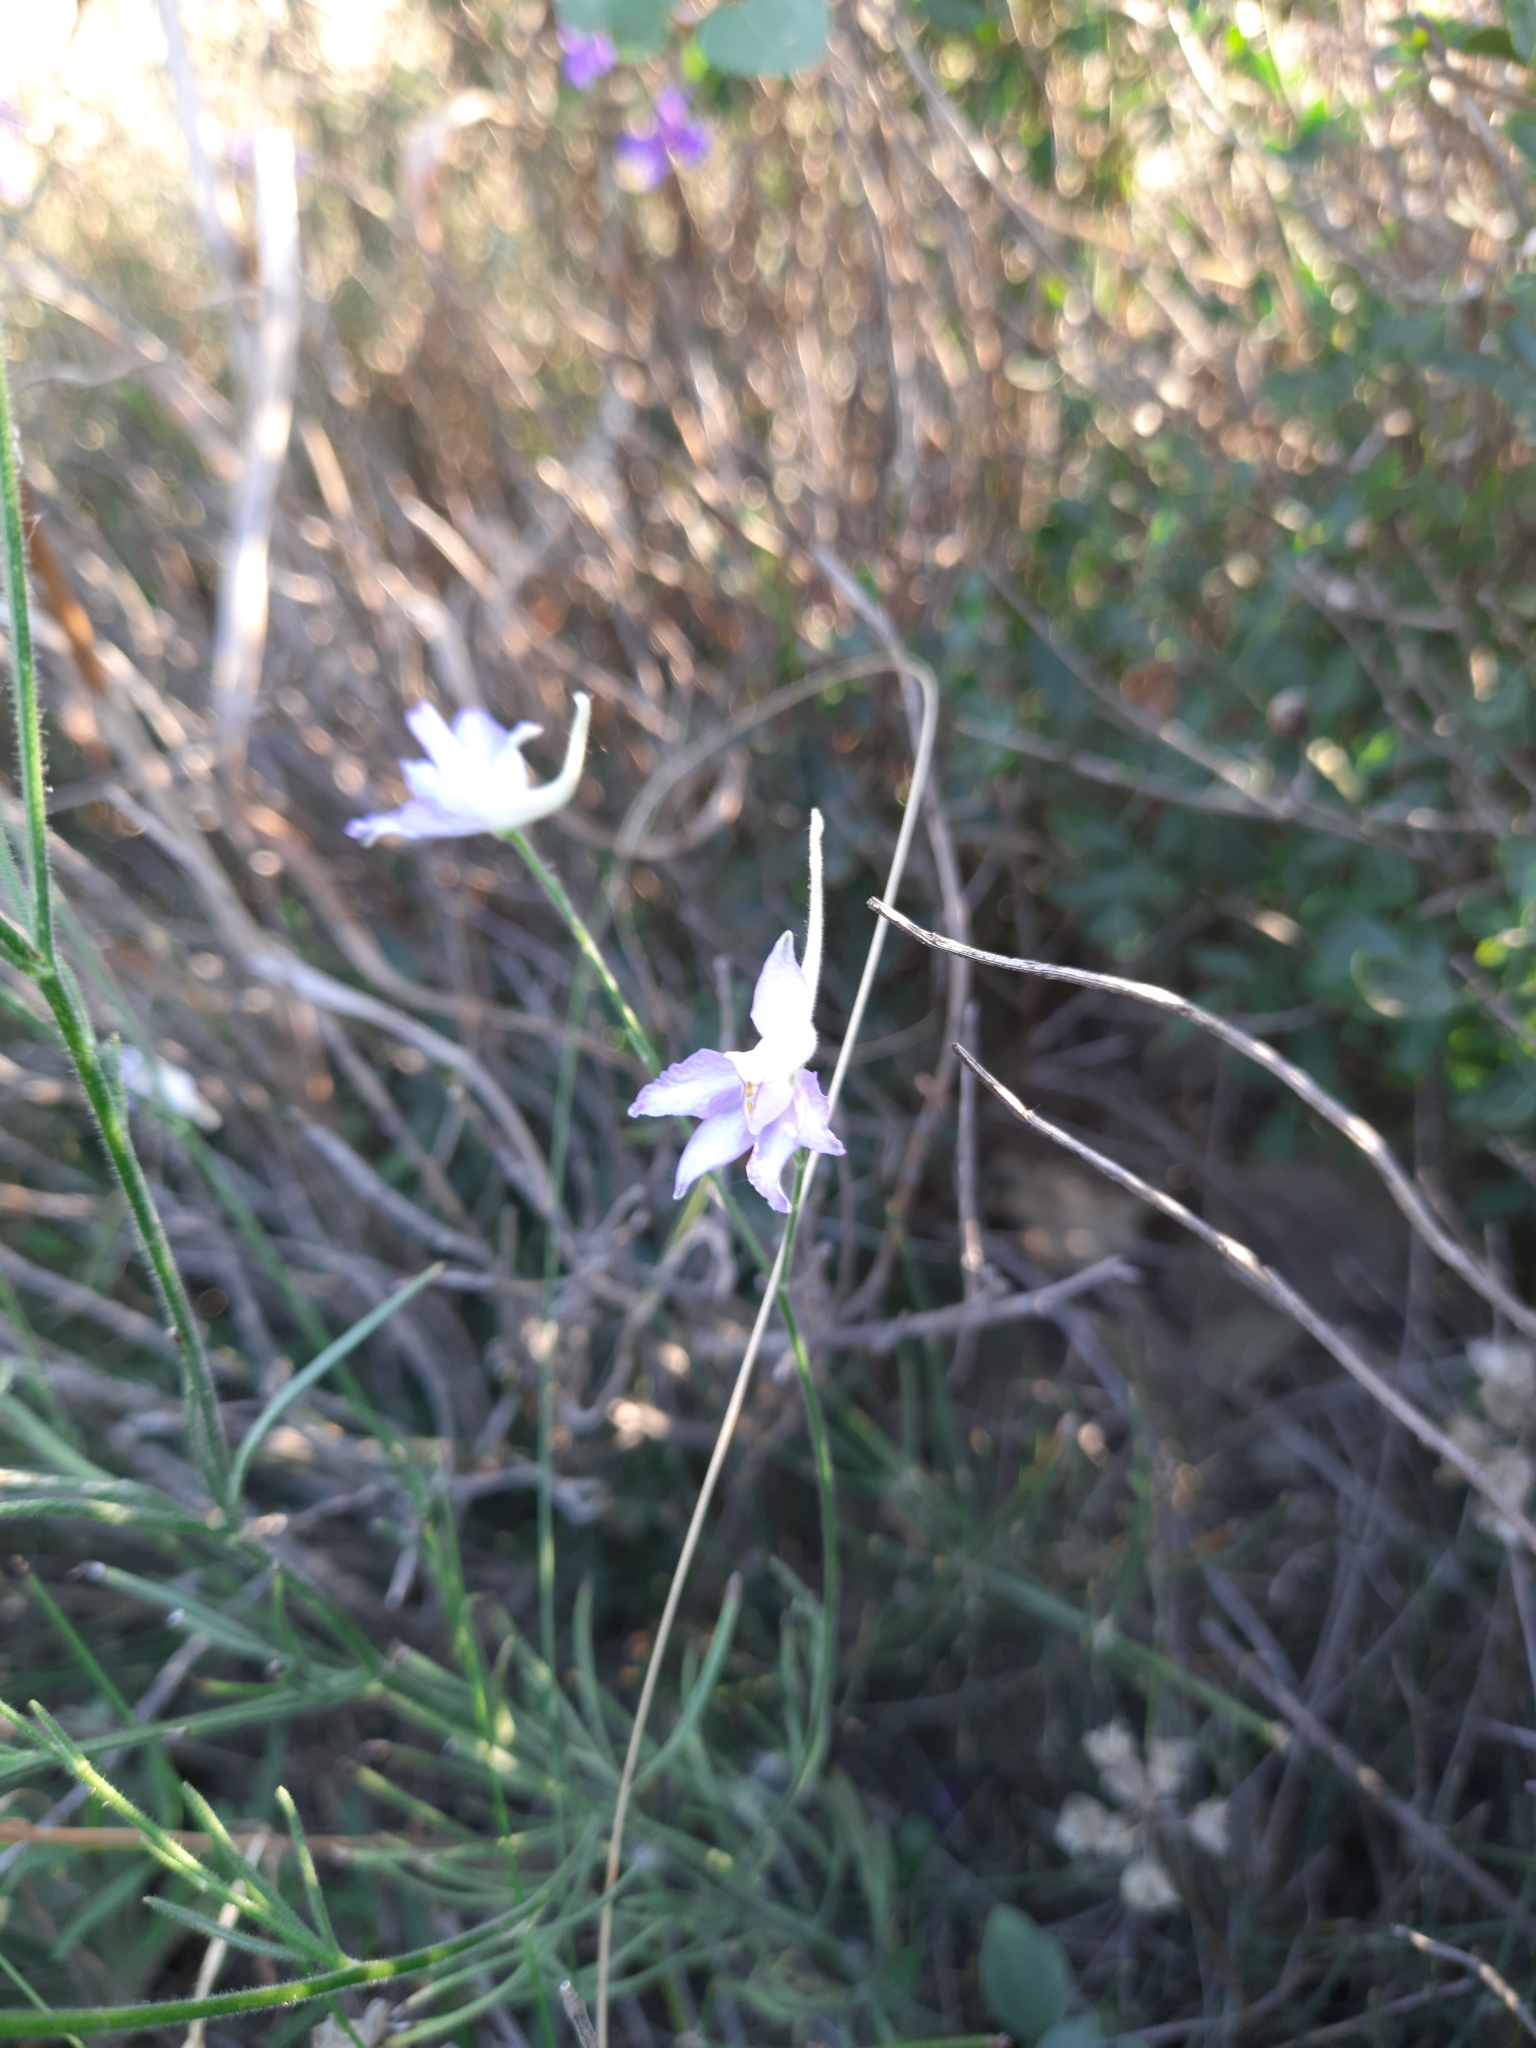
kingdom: Plantae
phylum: Tracheophyta
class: Magnoliopsida
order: Ranunculales
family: Ranunculaceae
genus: Delphinium
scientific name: Delphinium consolida
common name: Branching larkspur
